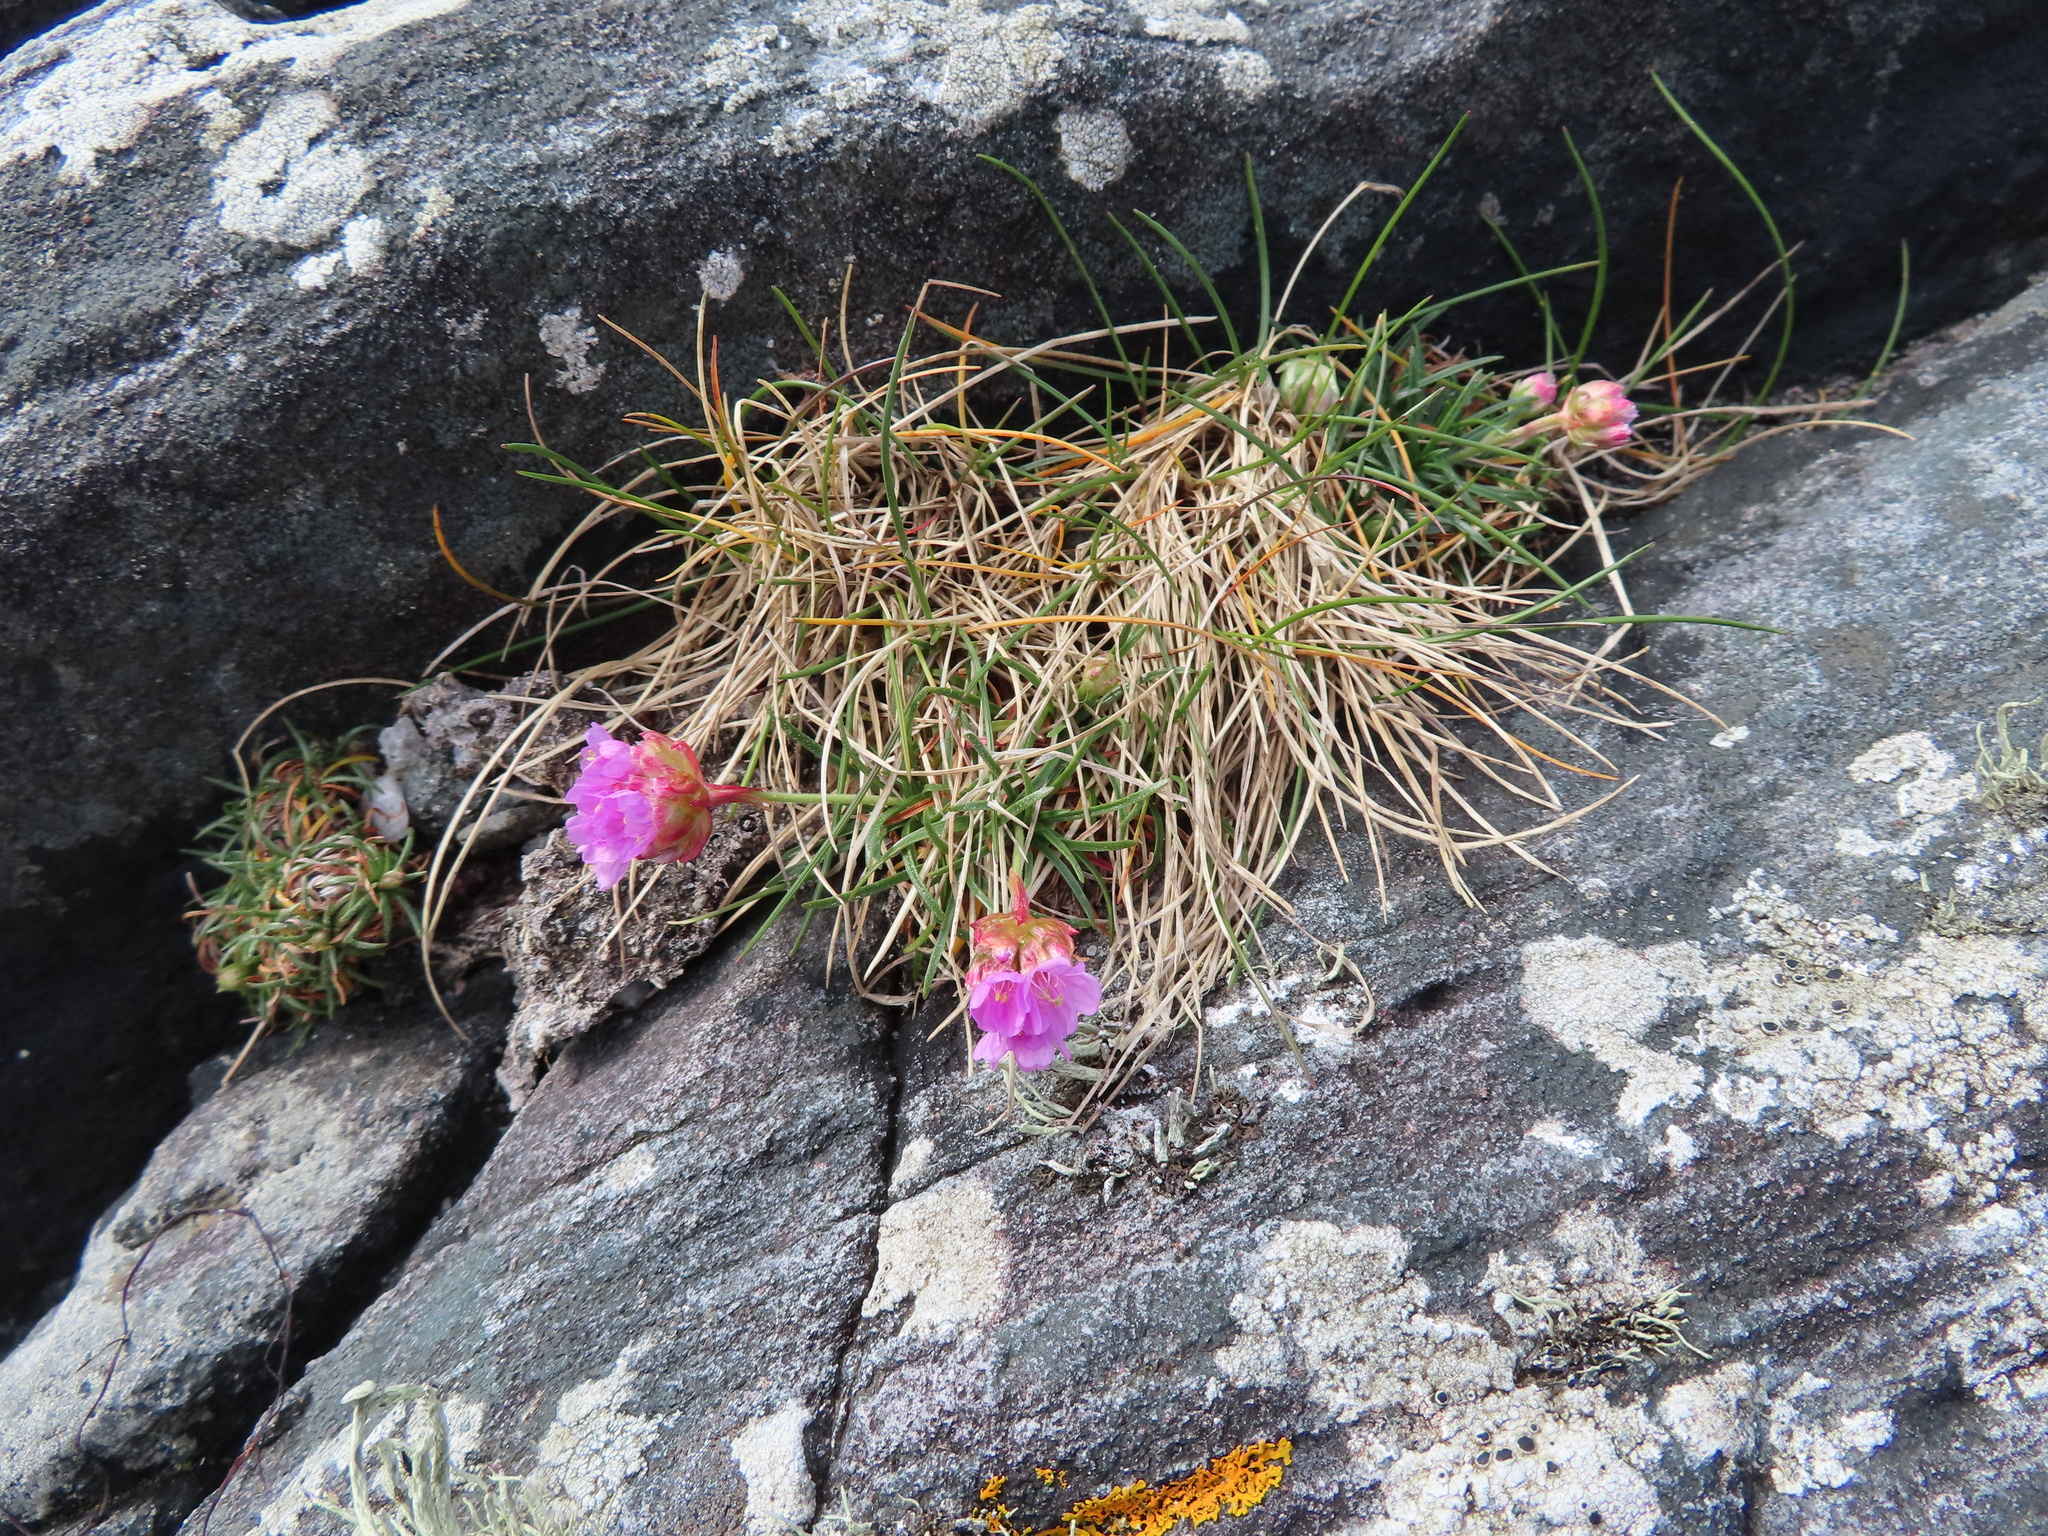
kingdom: Plantae
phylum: Tracheophyta
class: Magnoliopsida
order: Caryophyllales
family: Plumbaginaceae
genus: Armeria
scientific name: Armeria maritima
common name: Thrift
